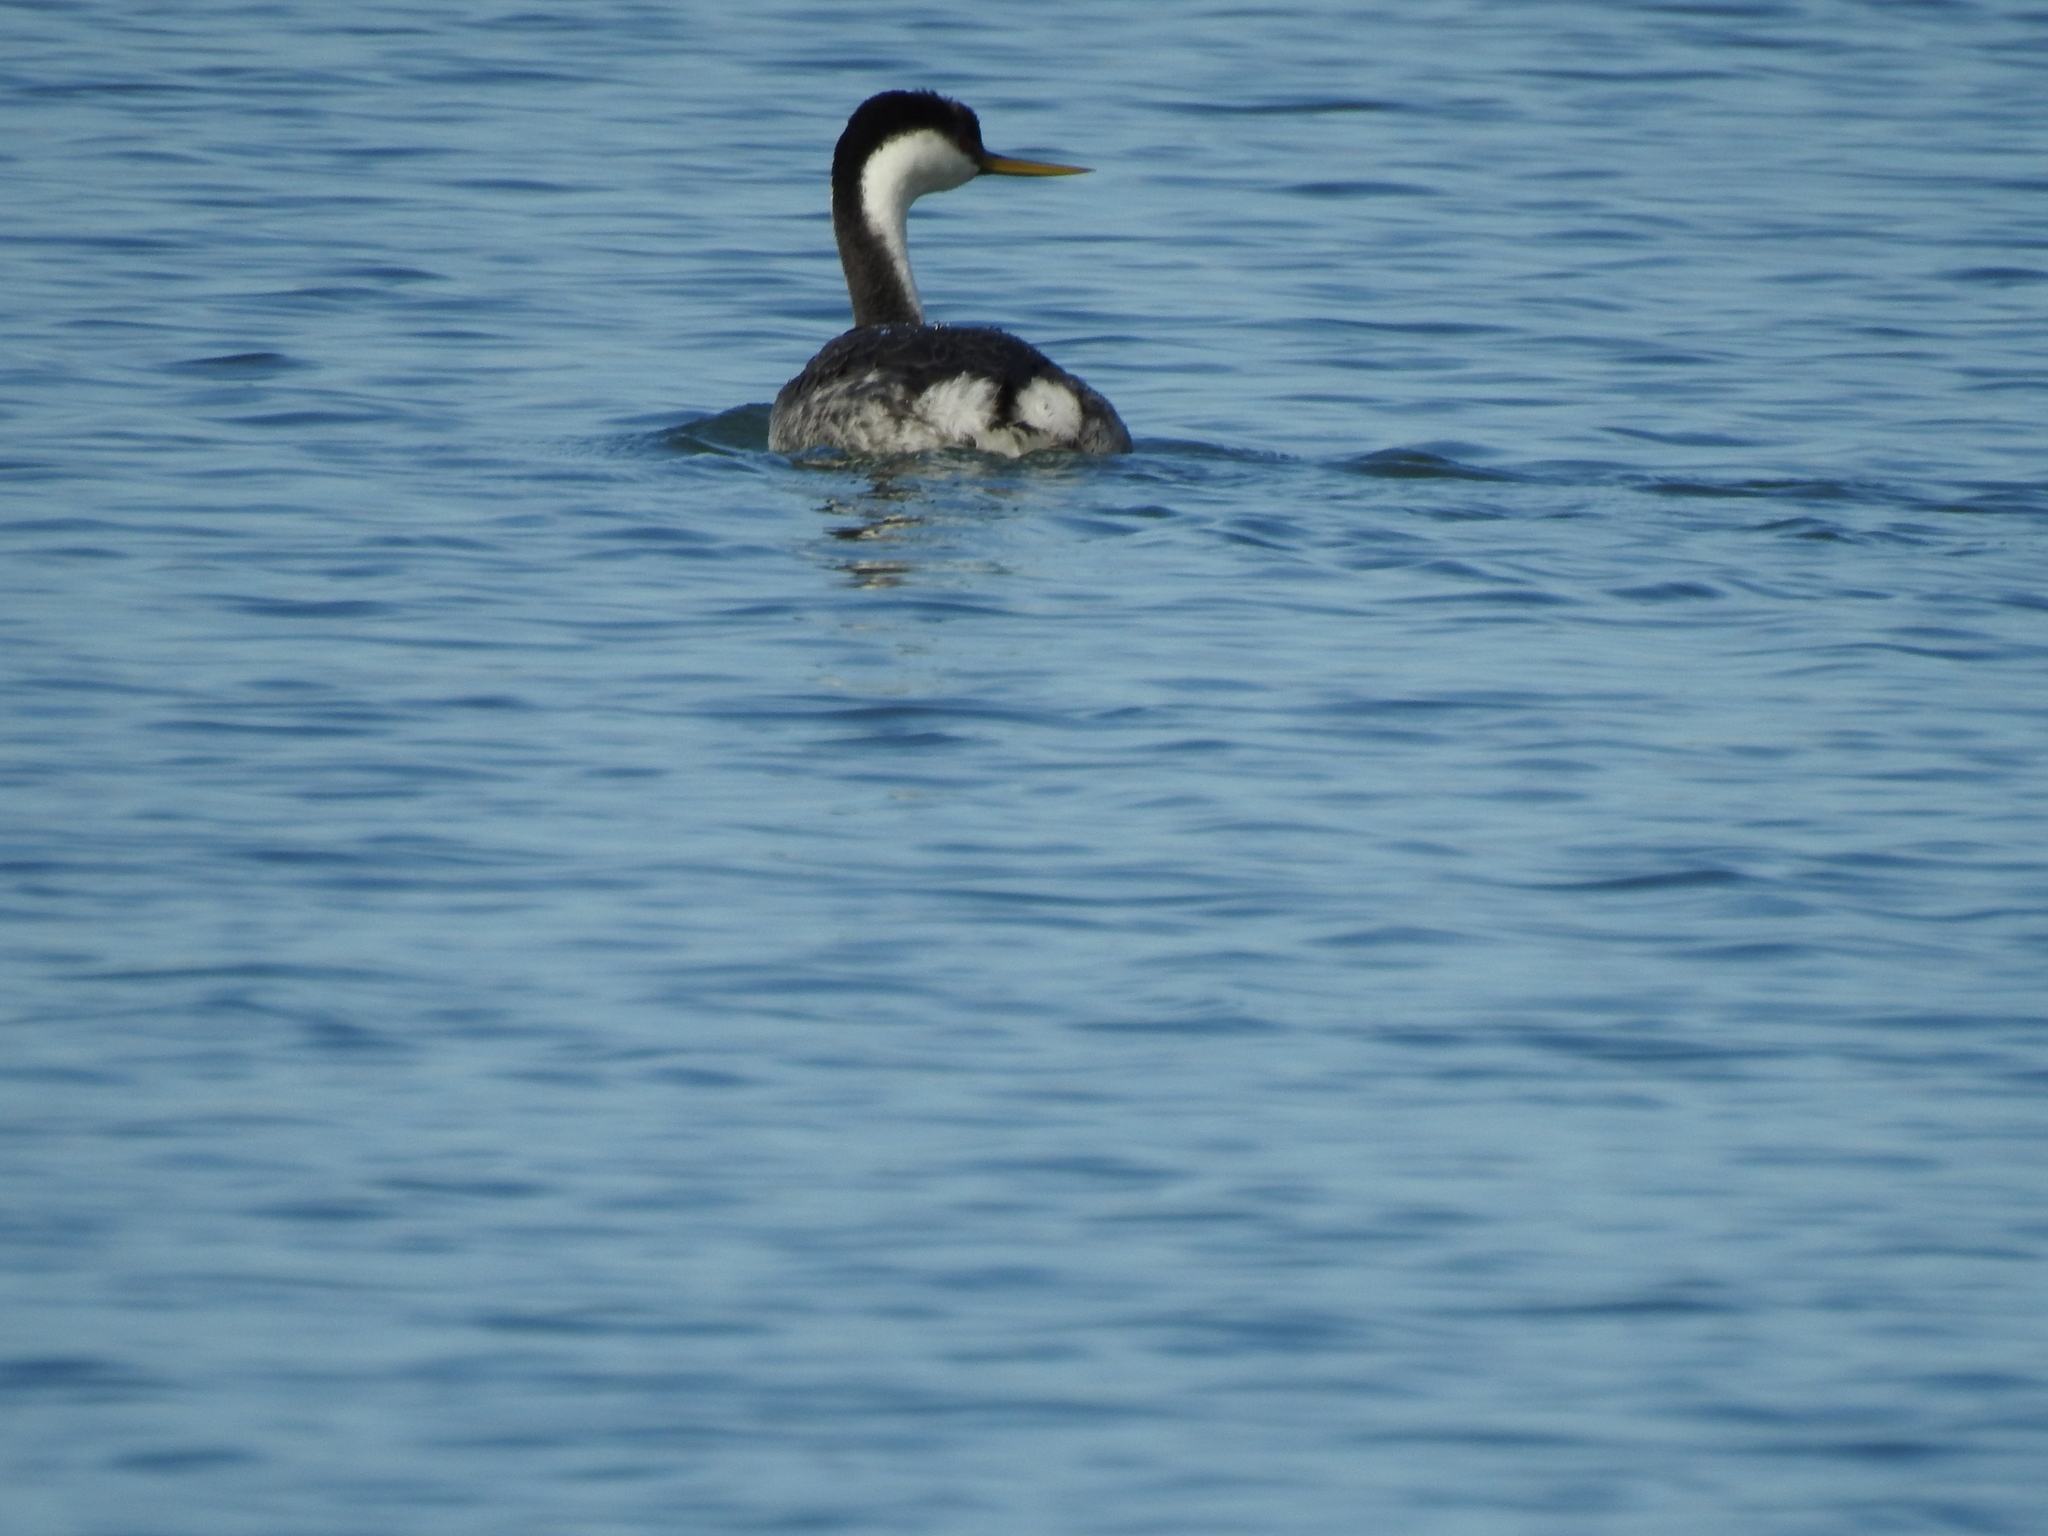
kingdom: Animalia
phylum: Chordata
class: Aves
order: Podicipediformes
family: Podicipedidae
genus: Aechmophorus
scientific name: Aechmophorus occidentalis
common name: Western grebe
